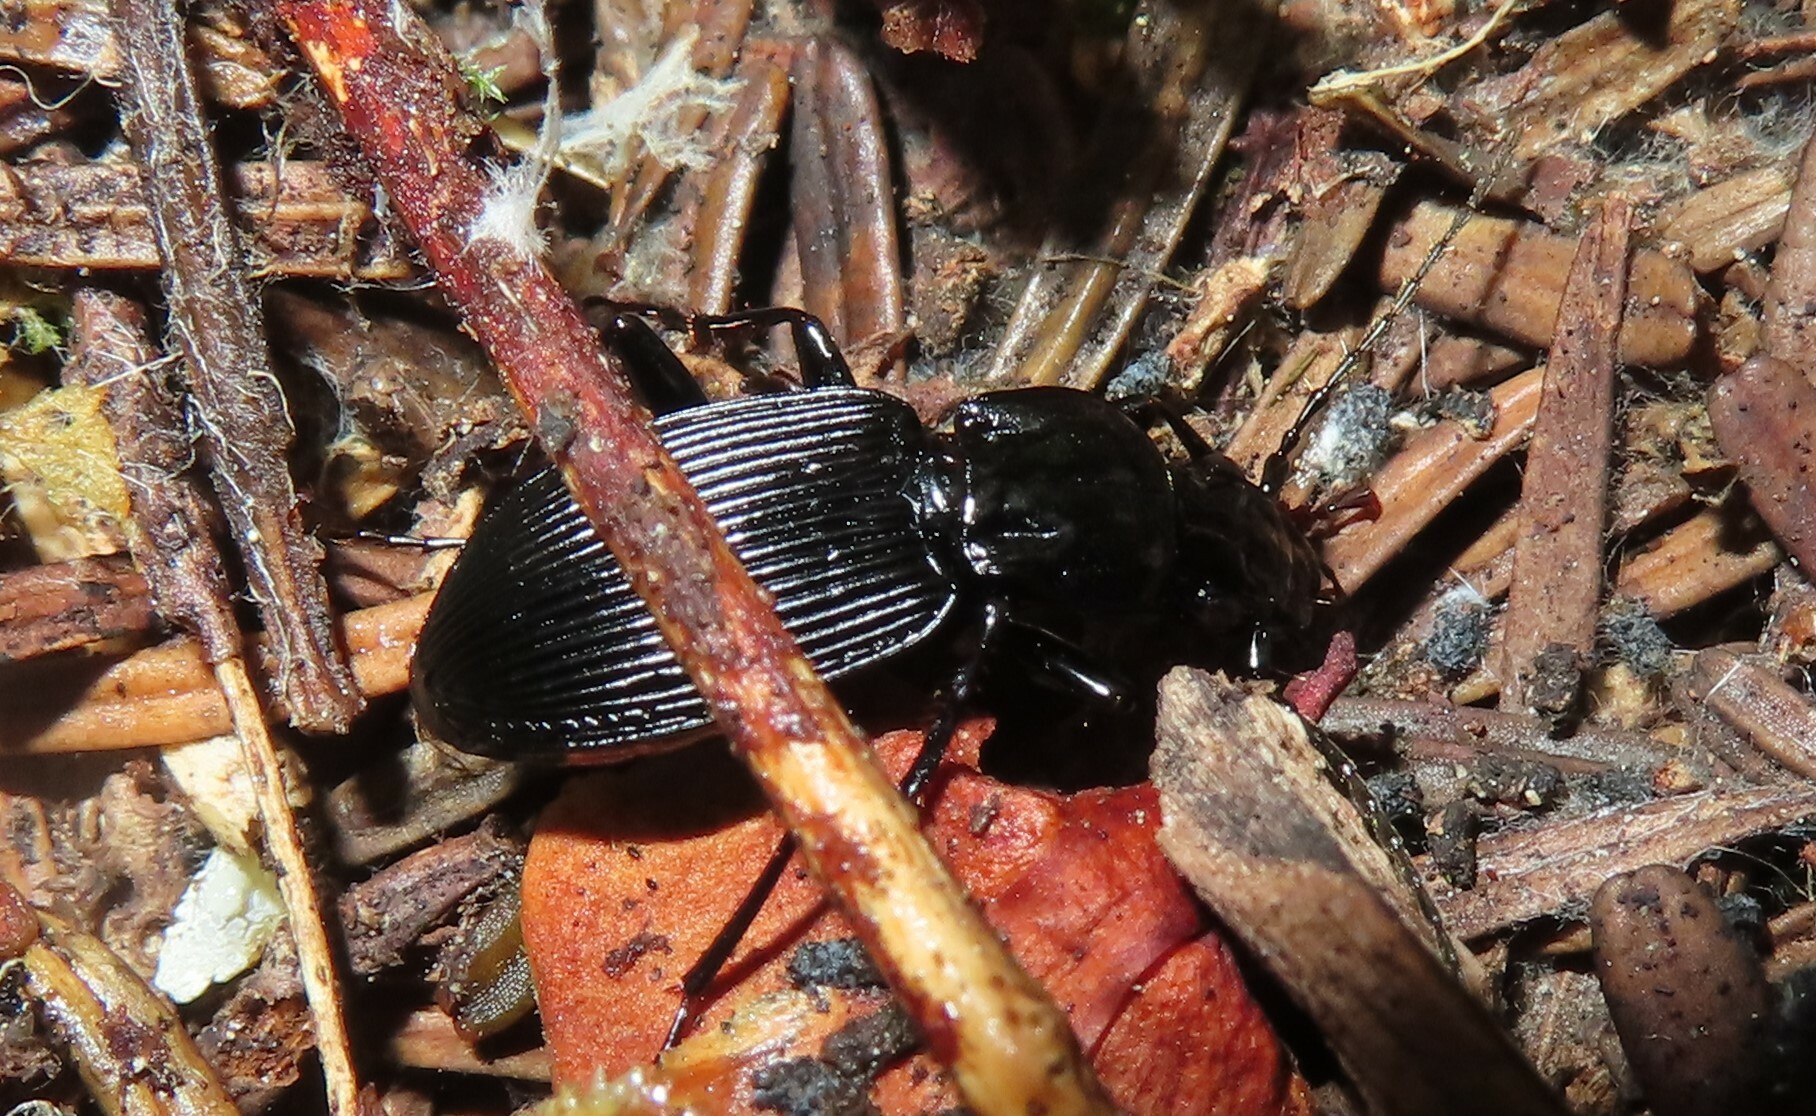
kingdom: Animalia
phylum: Arthropoda
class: Insecta
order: Coleoptera
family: Carabidae
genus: Pterostichus
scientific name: Pterostichus lachrymosus
